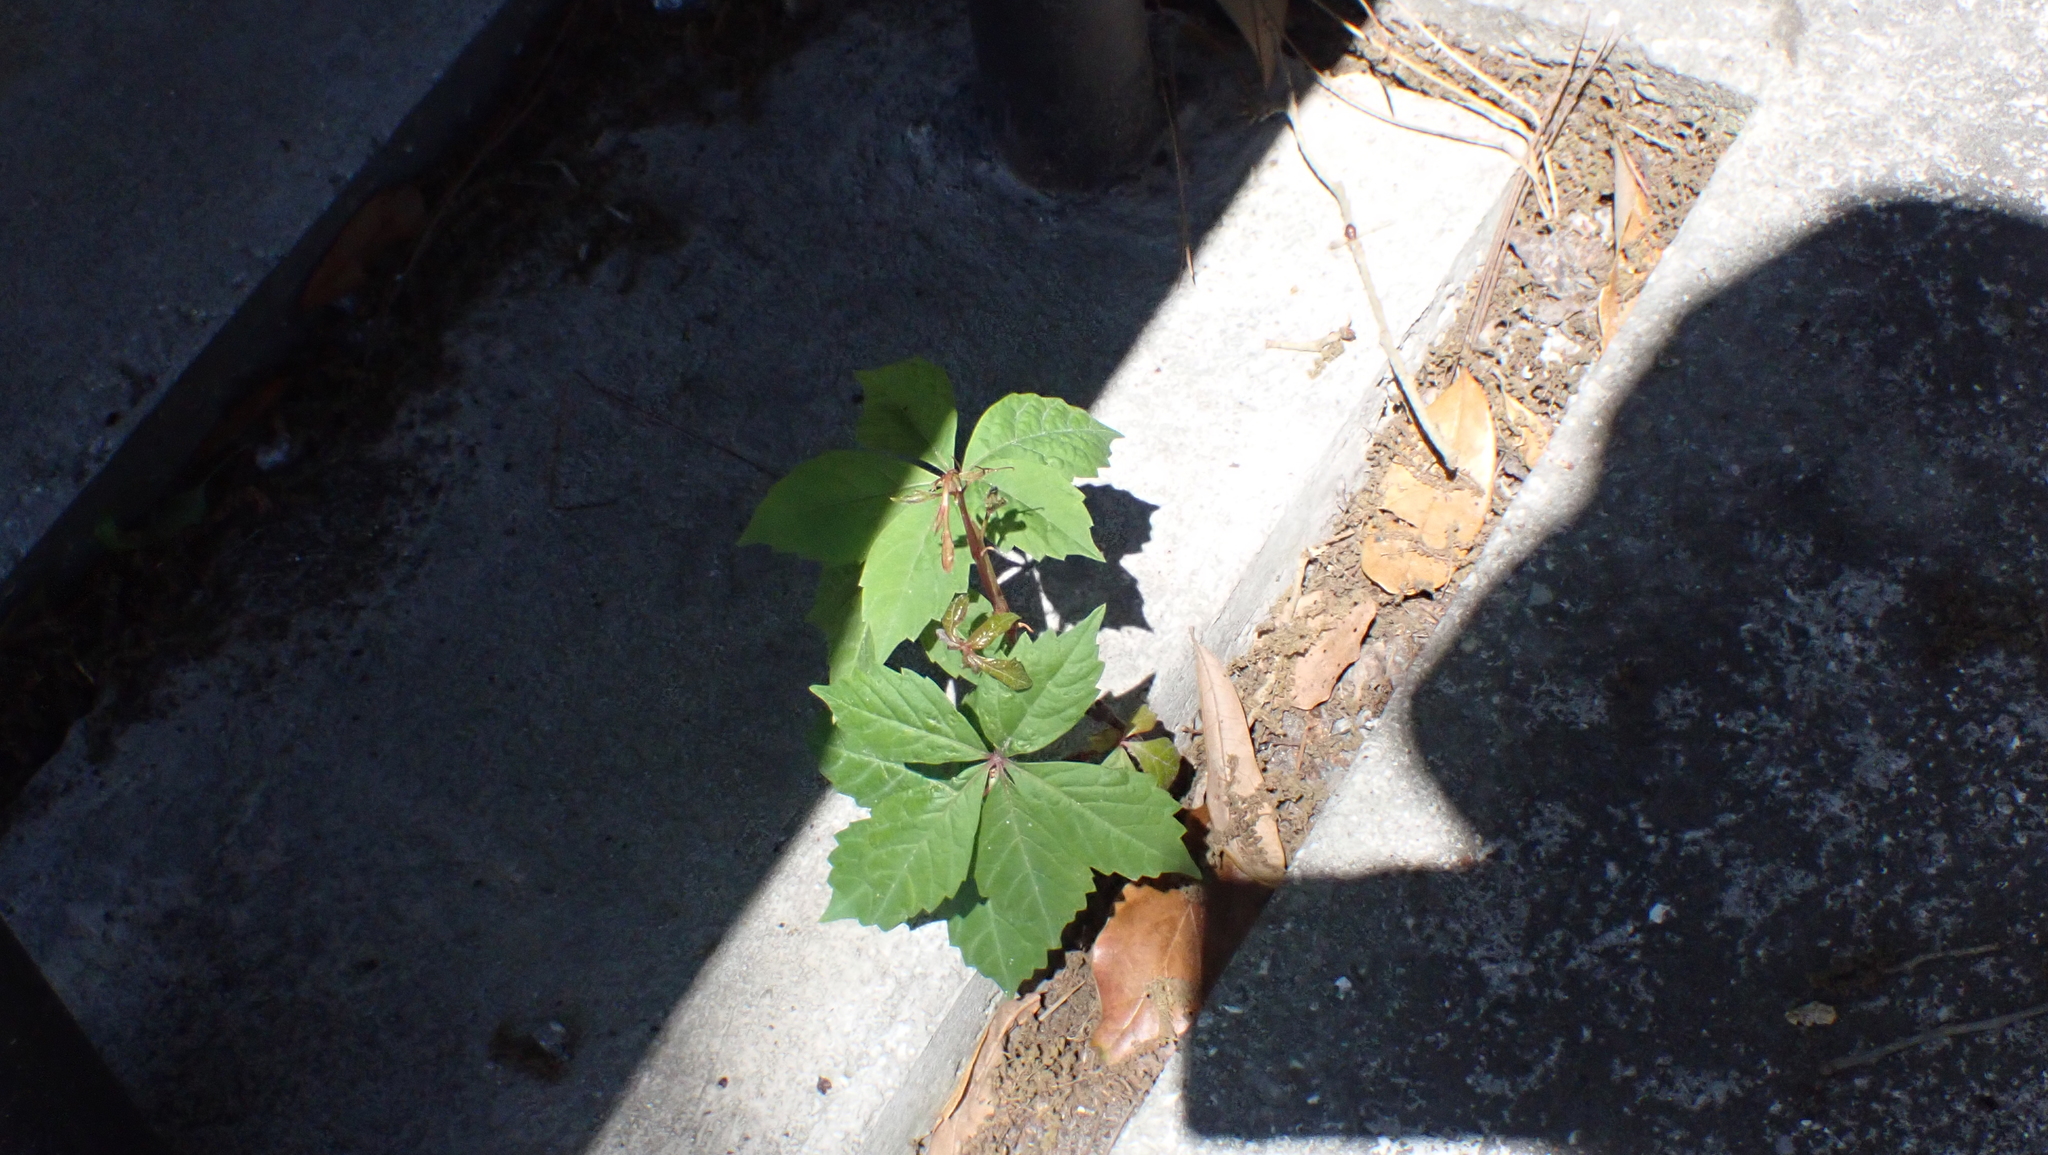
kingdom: Plantae
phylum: Tracheophyta
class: Magnoliopsida
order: Vitales
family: Vitaceae
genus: Parthenocissus
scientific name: Parthenocissus quinquefolia
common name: Virginia-creeper
